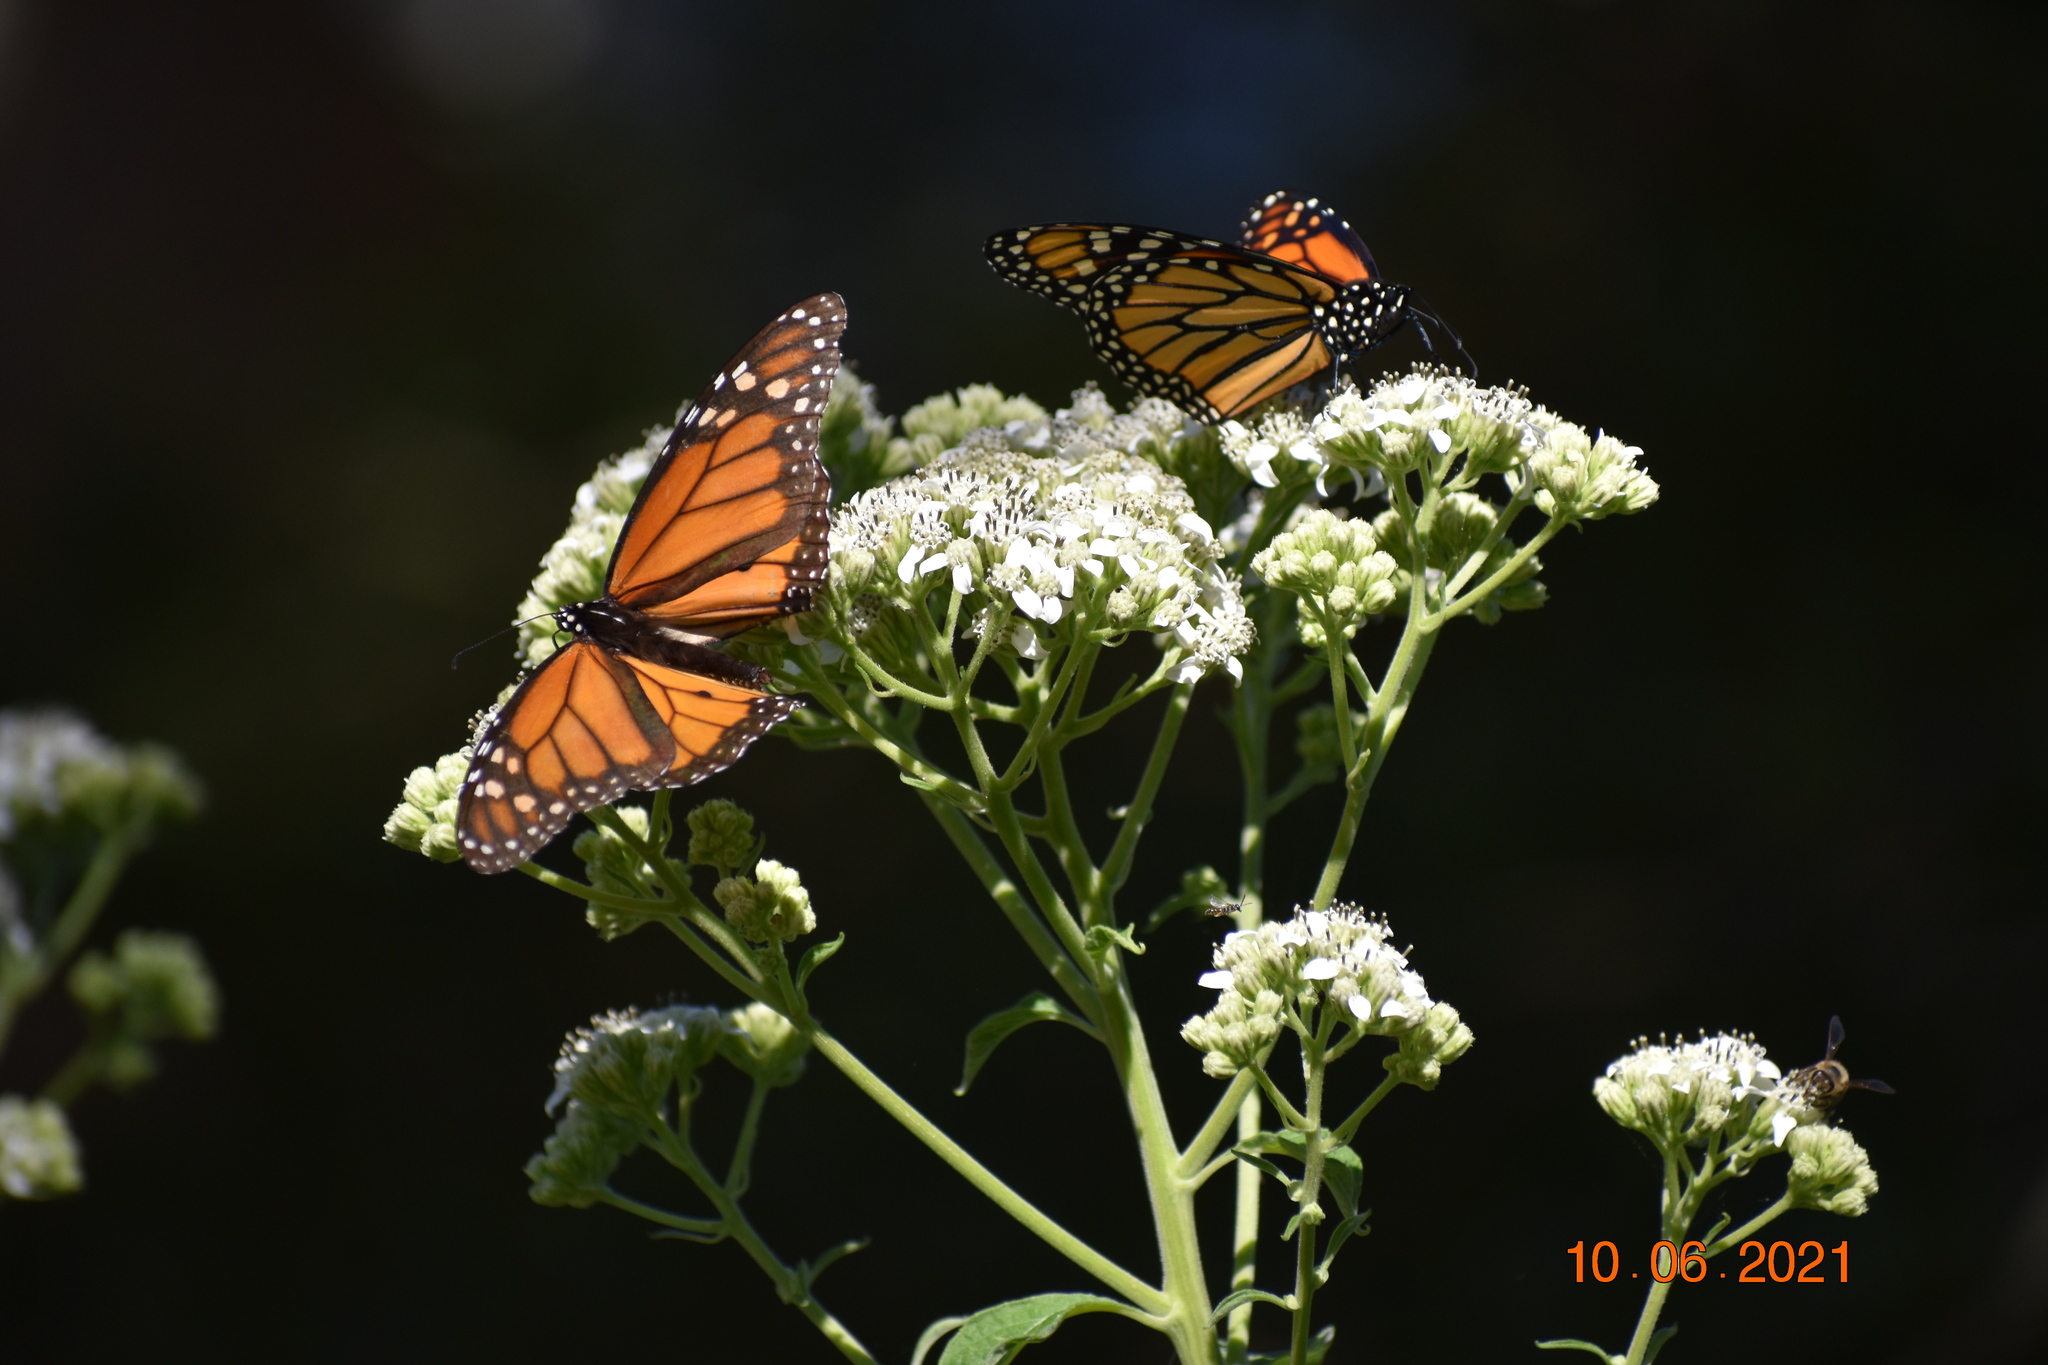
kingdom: Animalia
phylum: Arthropoda
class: Insecta
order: Lepidoptera
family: Nymphalidae
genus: Danaus
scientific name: Danaus plexippus
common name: Monarch
